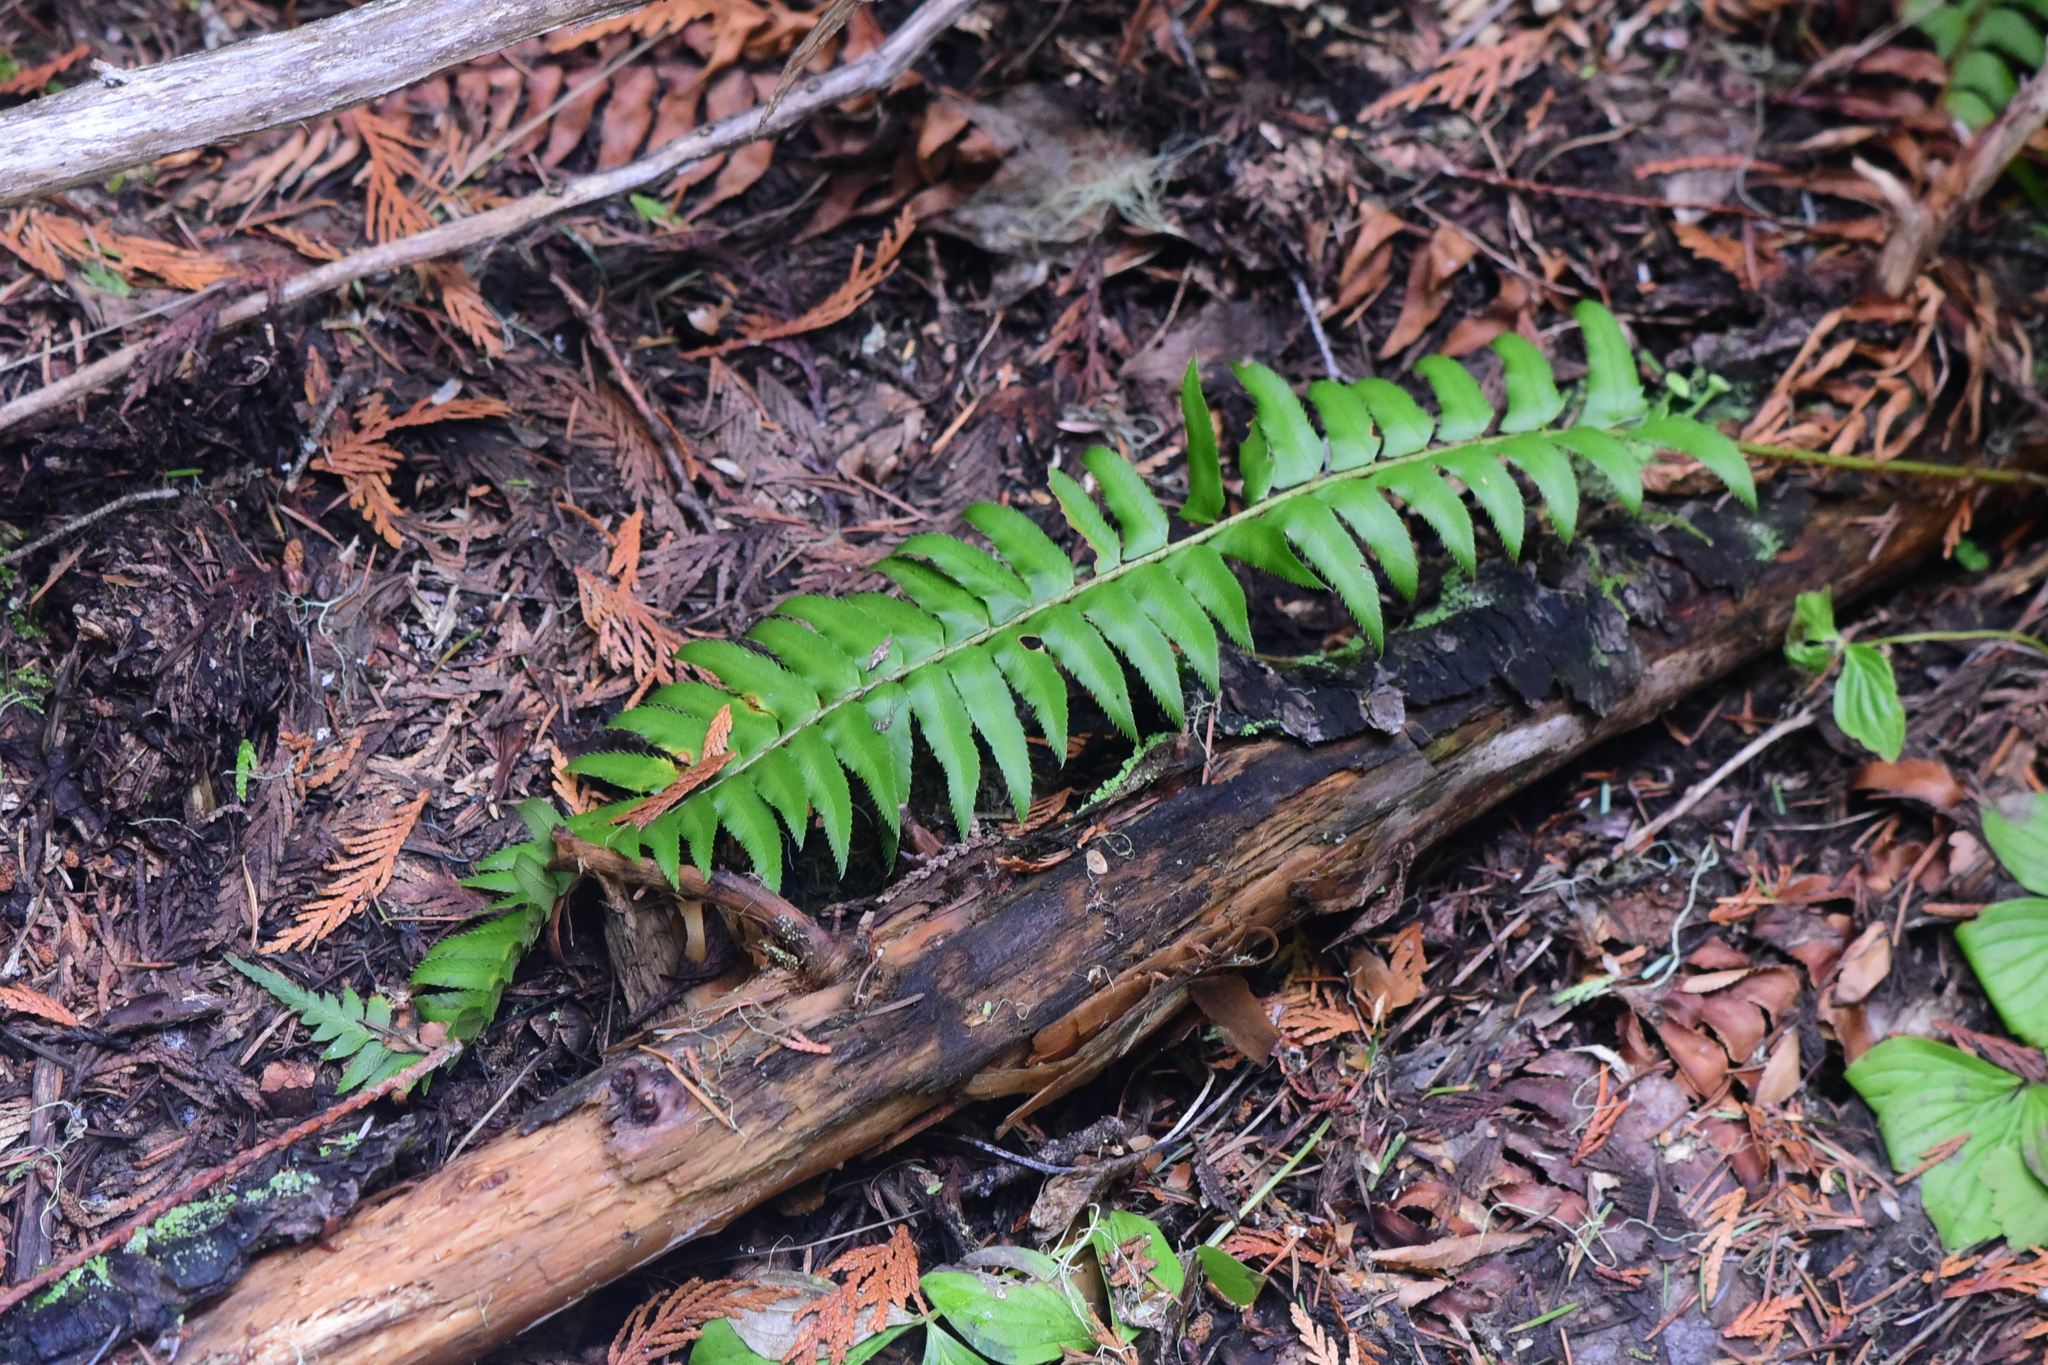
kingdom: Plantae
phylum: Tracheophyta
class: Polypodiopsida
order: Polypodiales
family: Dryopteridaceae
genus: Polystichum
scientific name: Polystichum munitum
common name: Western sword-fern
